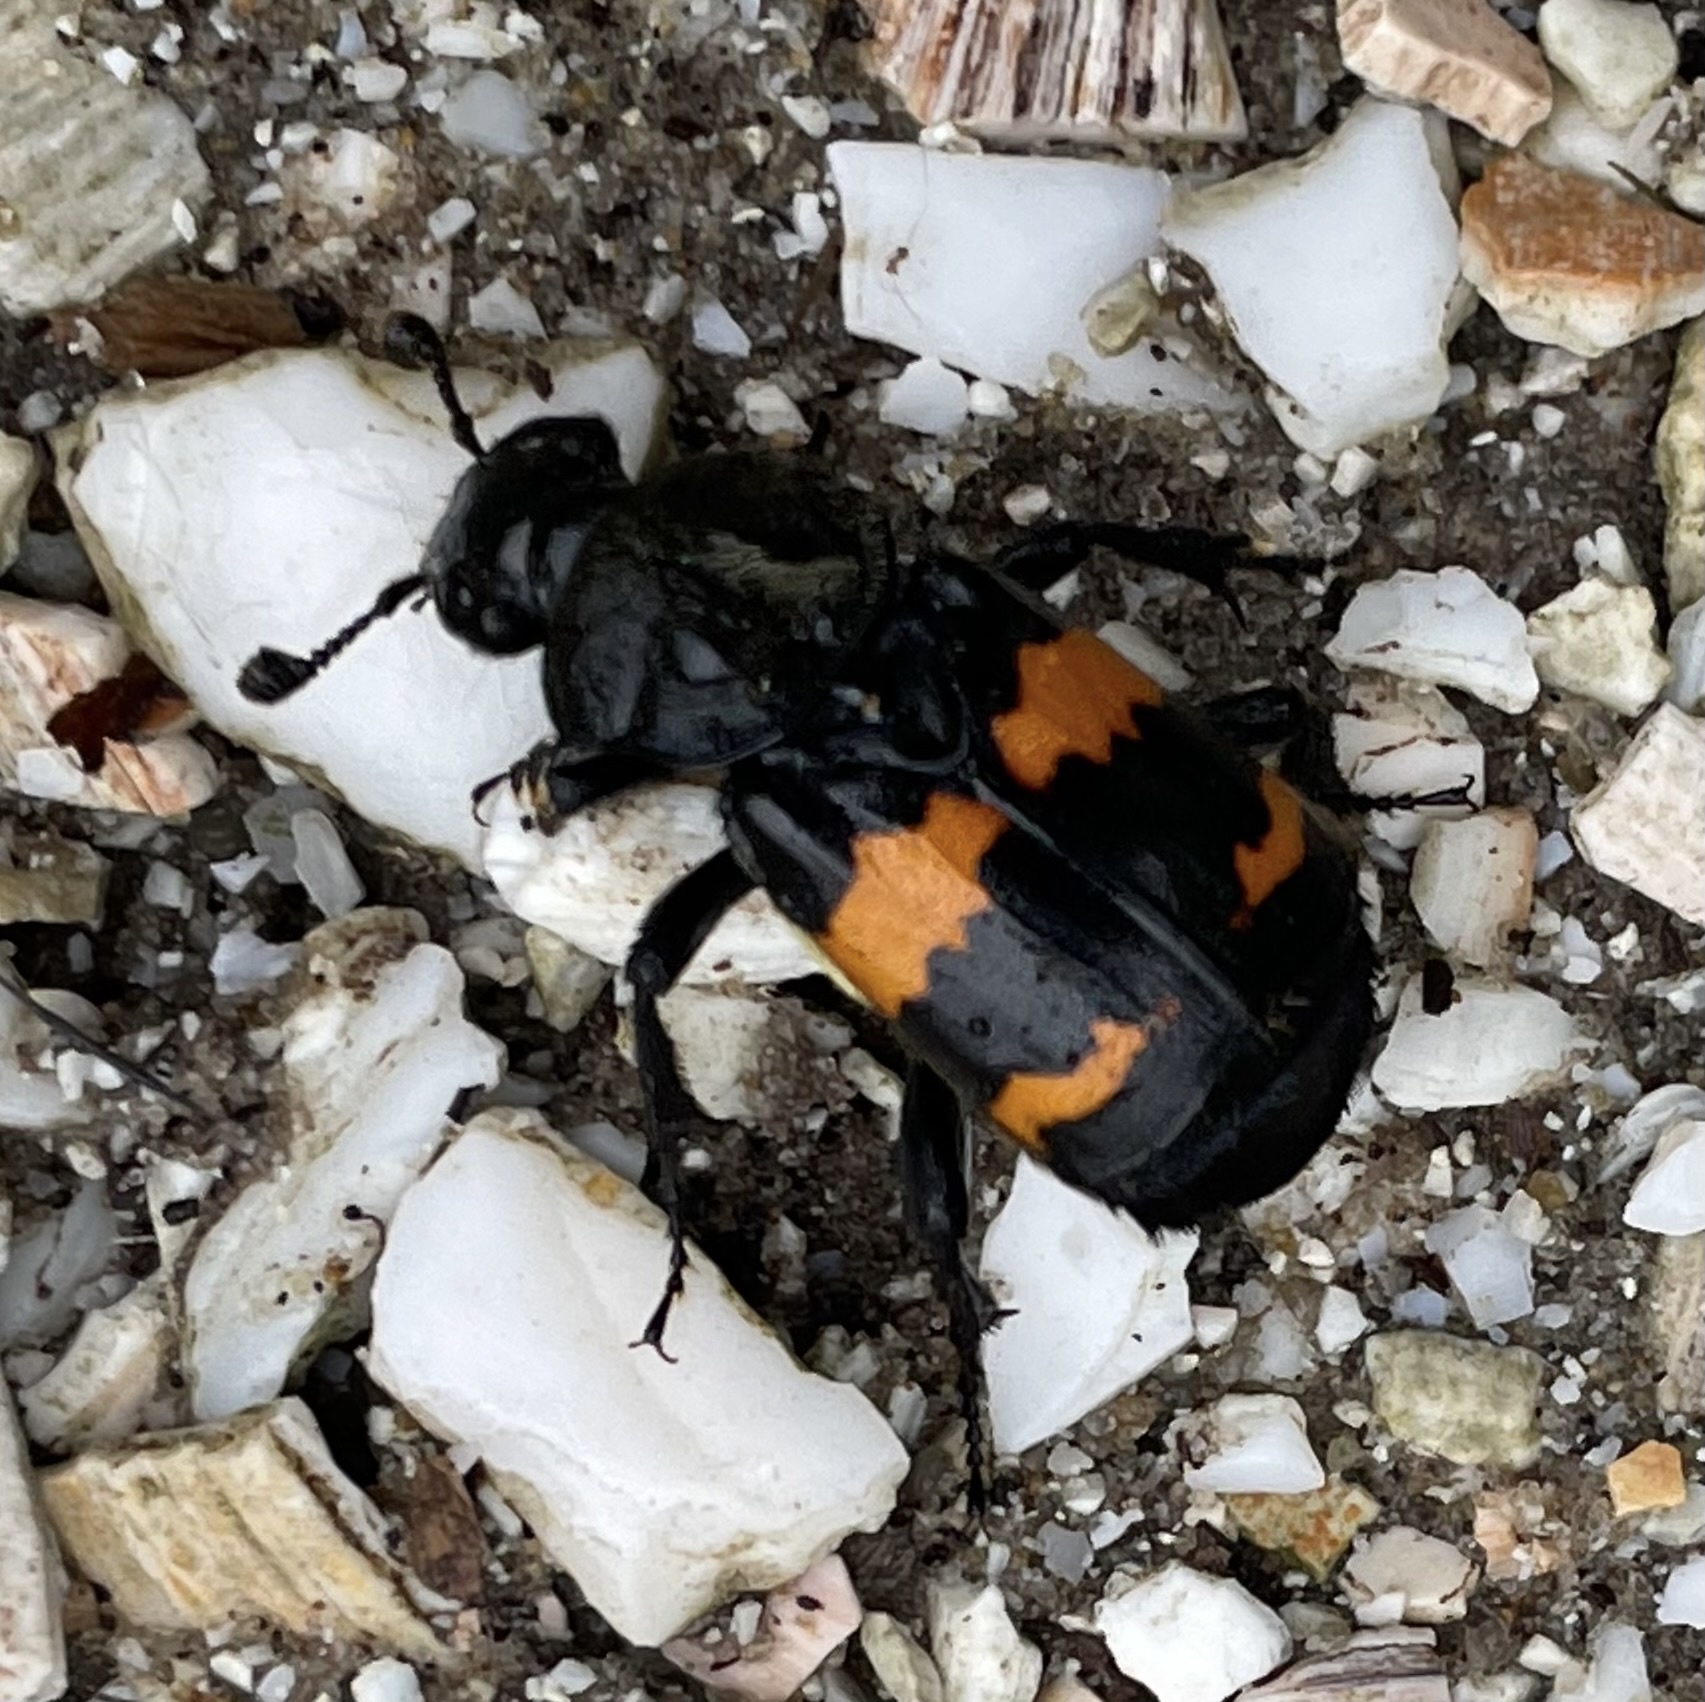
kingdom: Animalia
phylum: Arthropoda
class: Insecta
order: Coleoptera
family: Staphylinidae
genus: Nicrophorus
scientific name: Nicrophorus tomentosus
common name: Tomentose burying beetle
